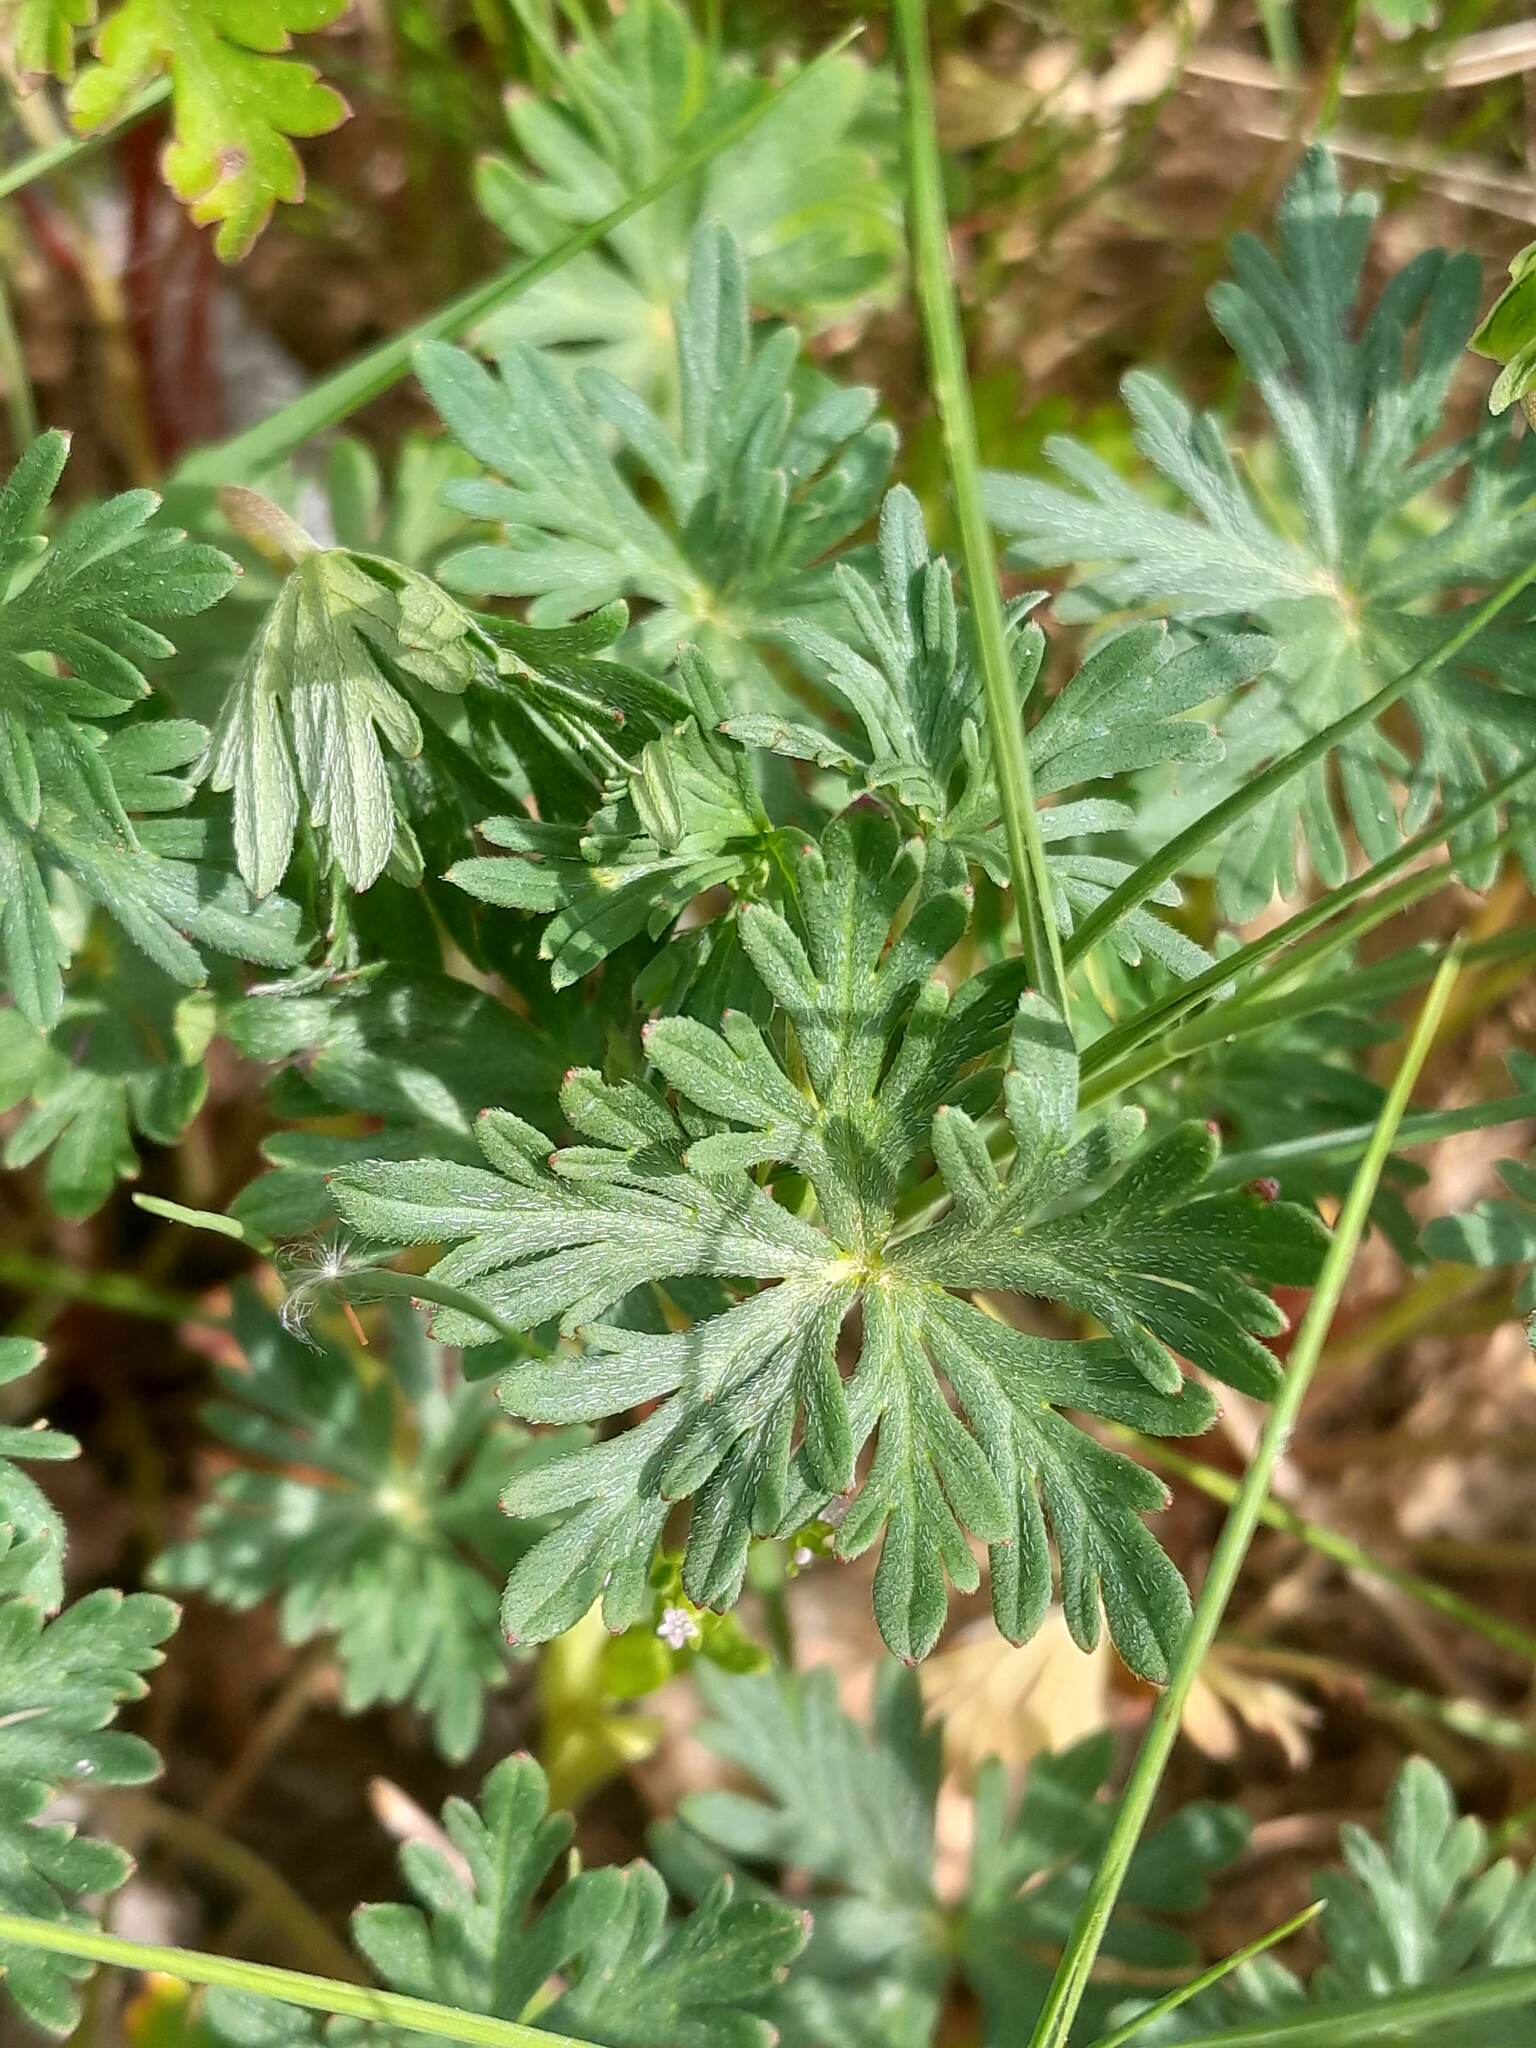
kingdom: Plantae
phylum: Tracheophyta
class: Magnoliopsida
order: Geraniales
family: Geraniaceae
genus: Geranium
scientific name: Geranium columbinum
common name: Long-stalked crane's-bill
